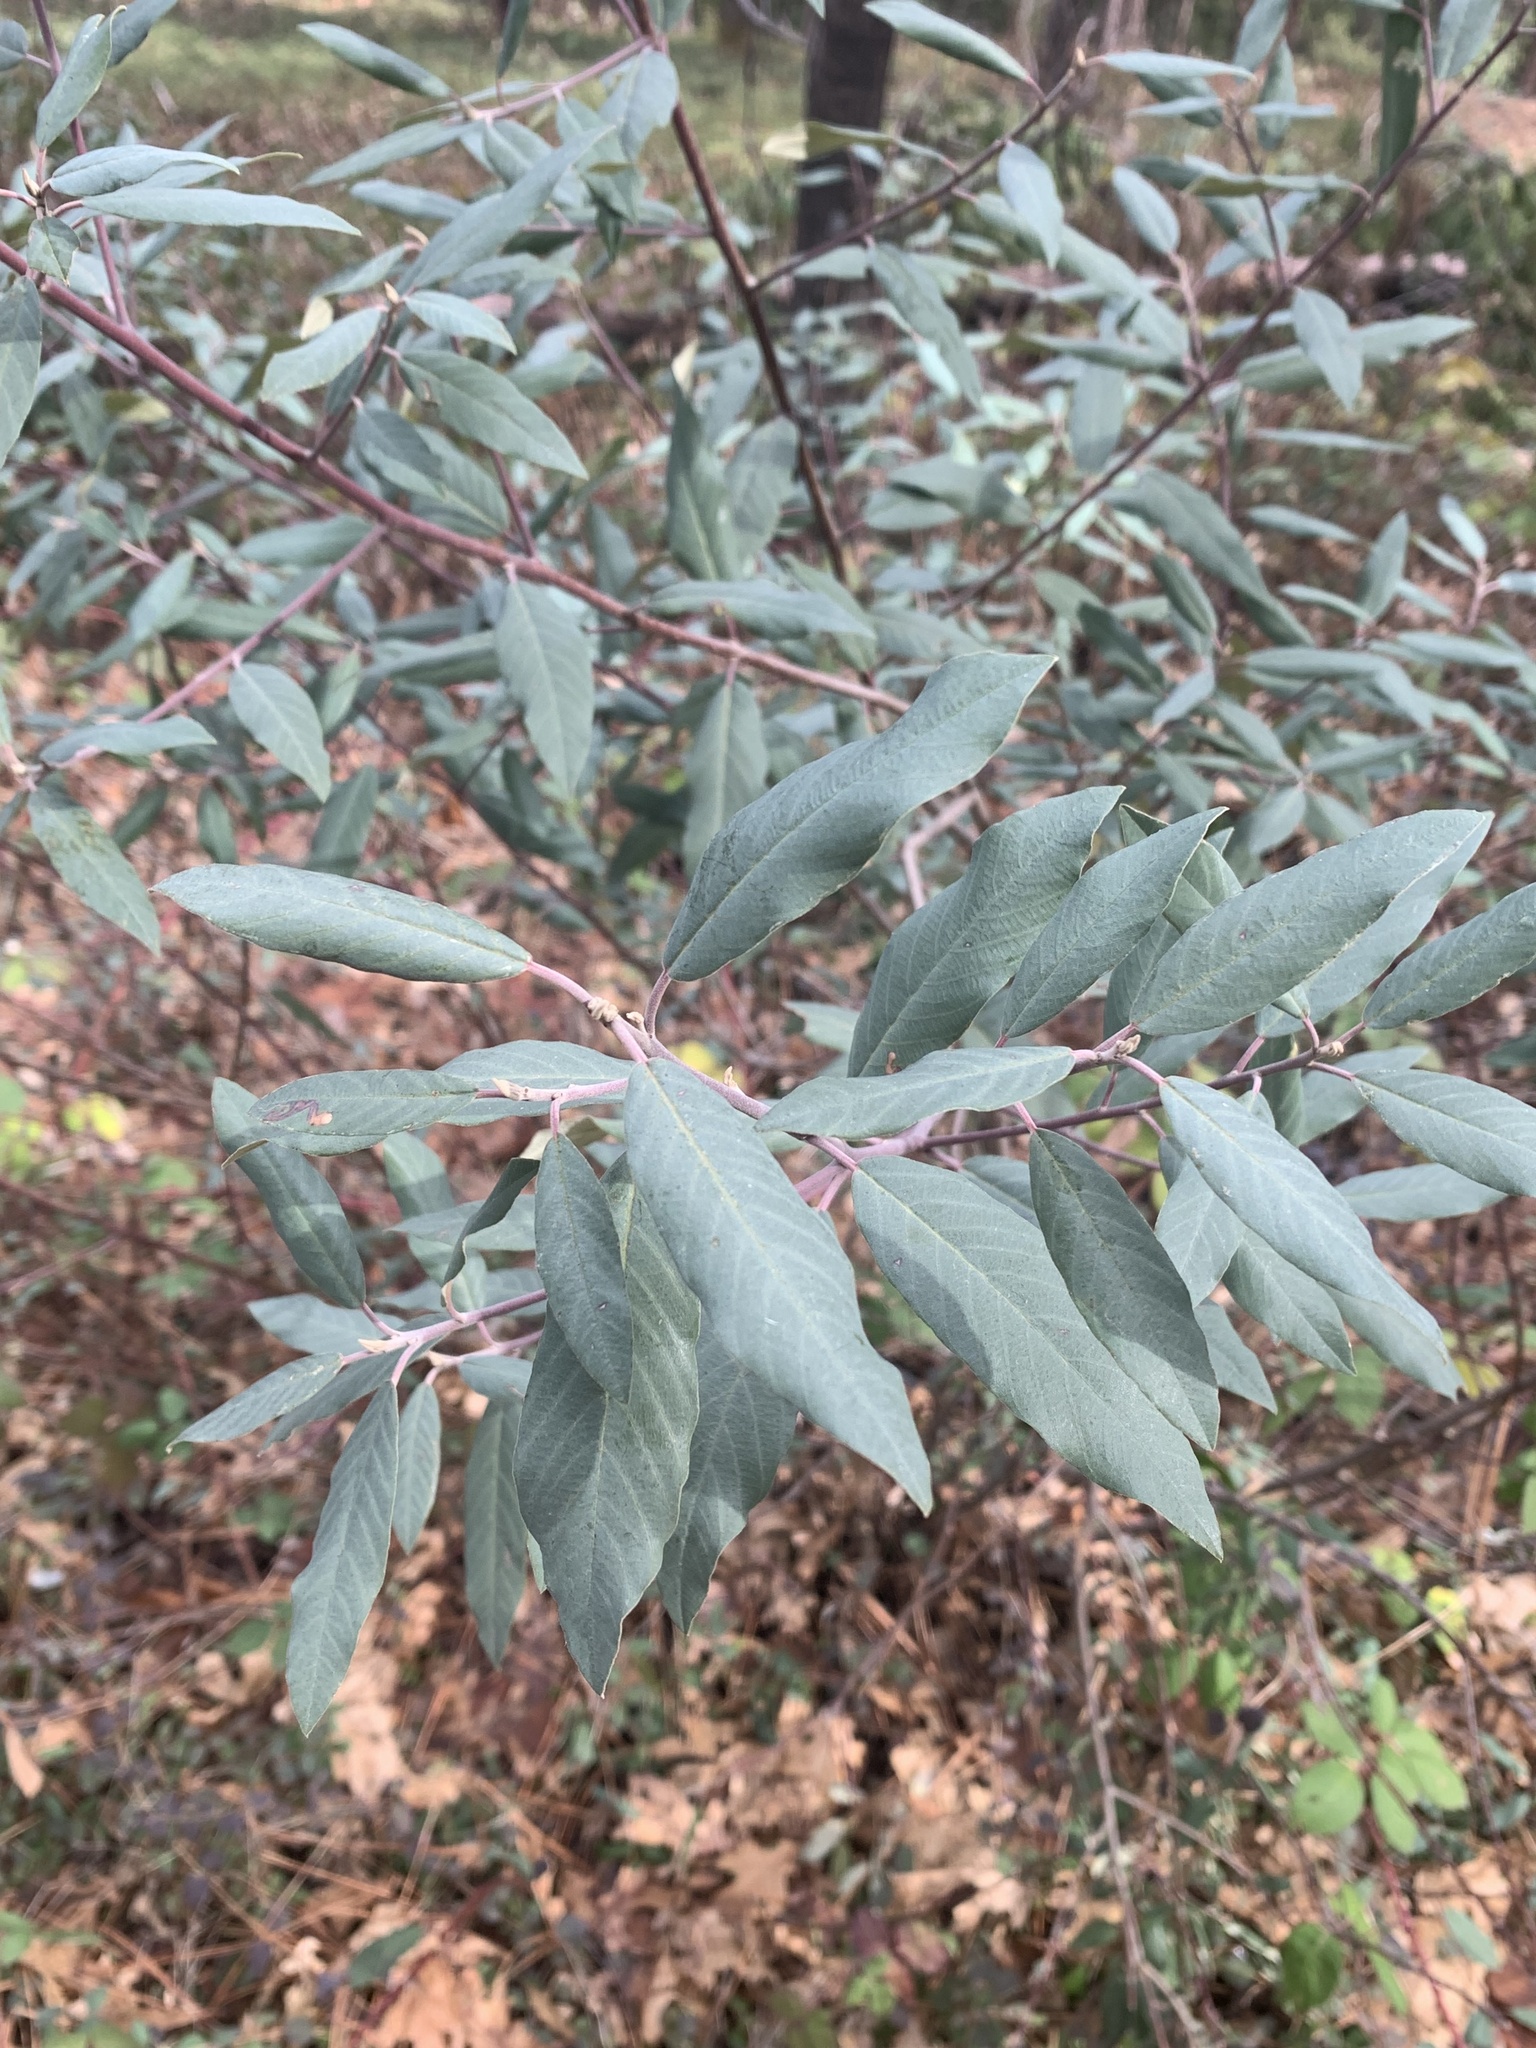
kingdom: Plantae
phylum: Tracheophyta
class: Magnoliopsida
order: Rosales
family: Rhamnaceae
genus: Frangula
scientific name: Frangula californica
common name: California buckthorn
